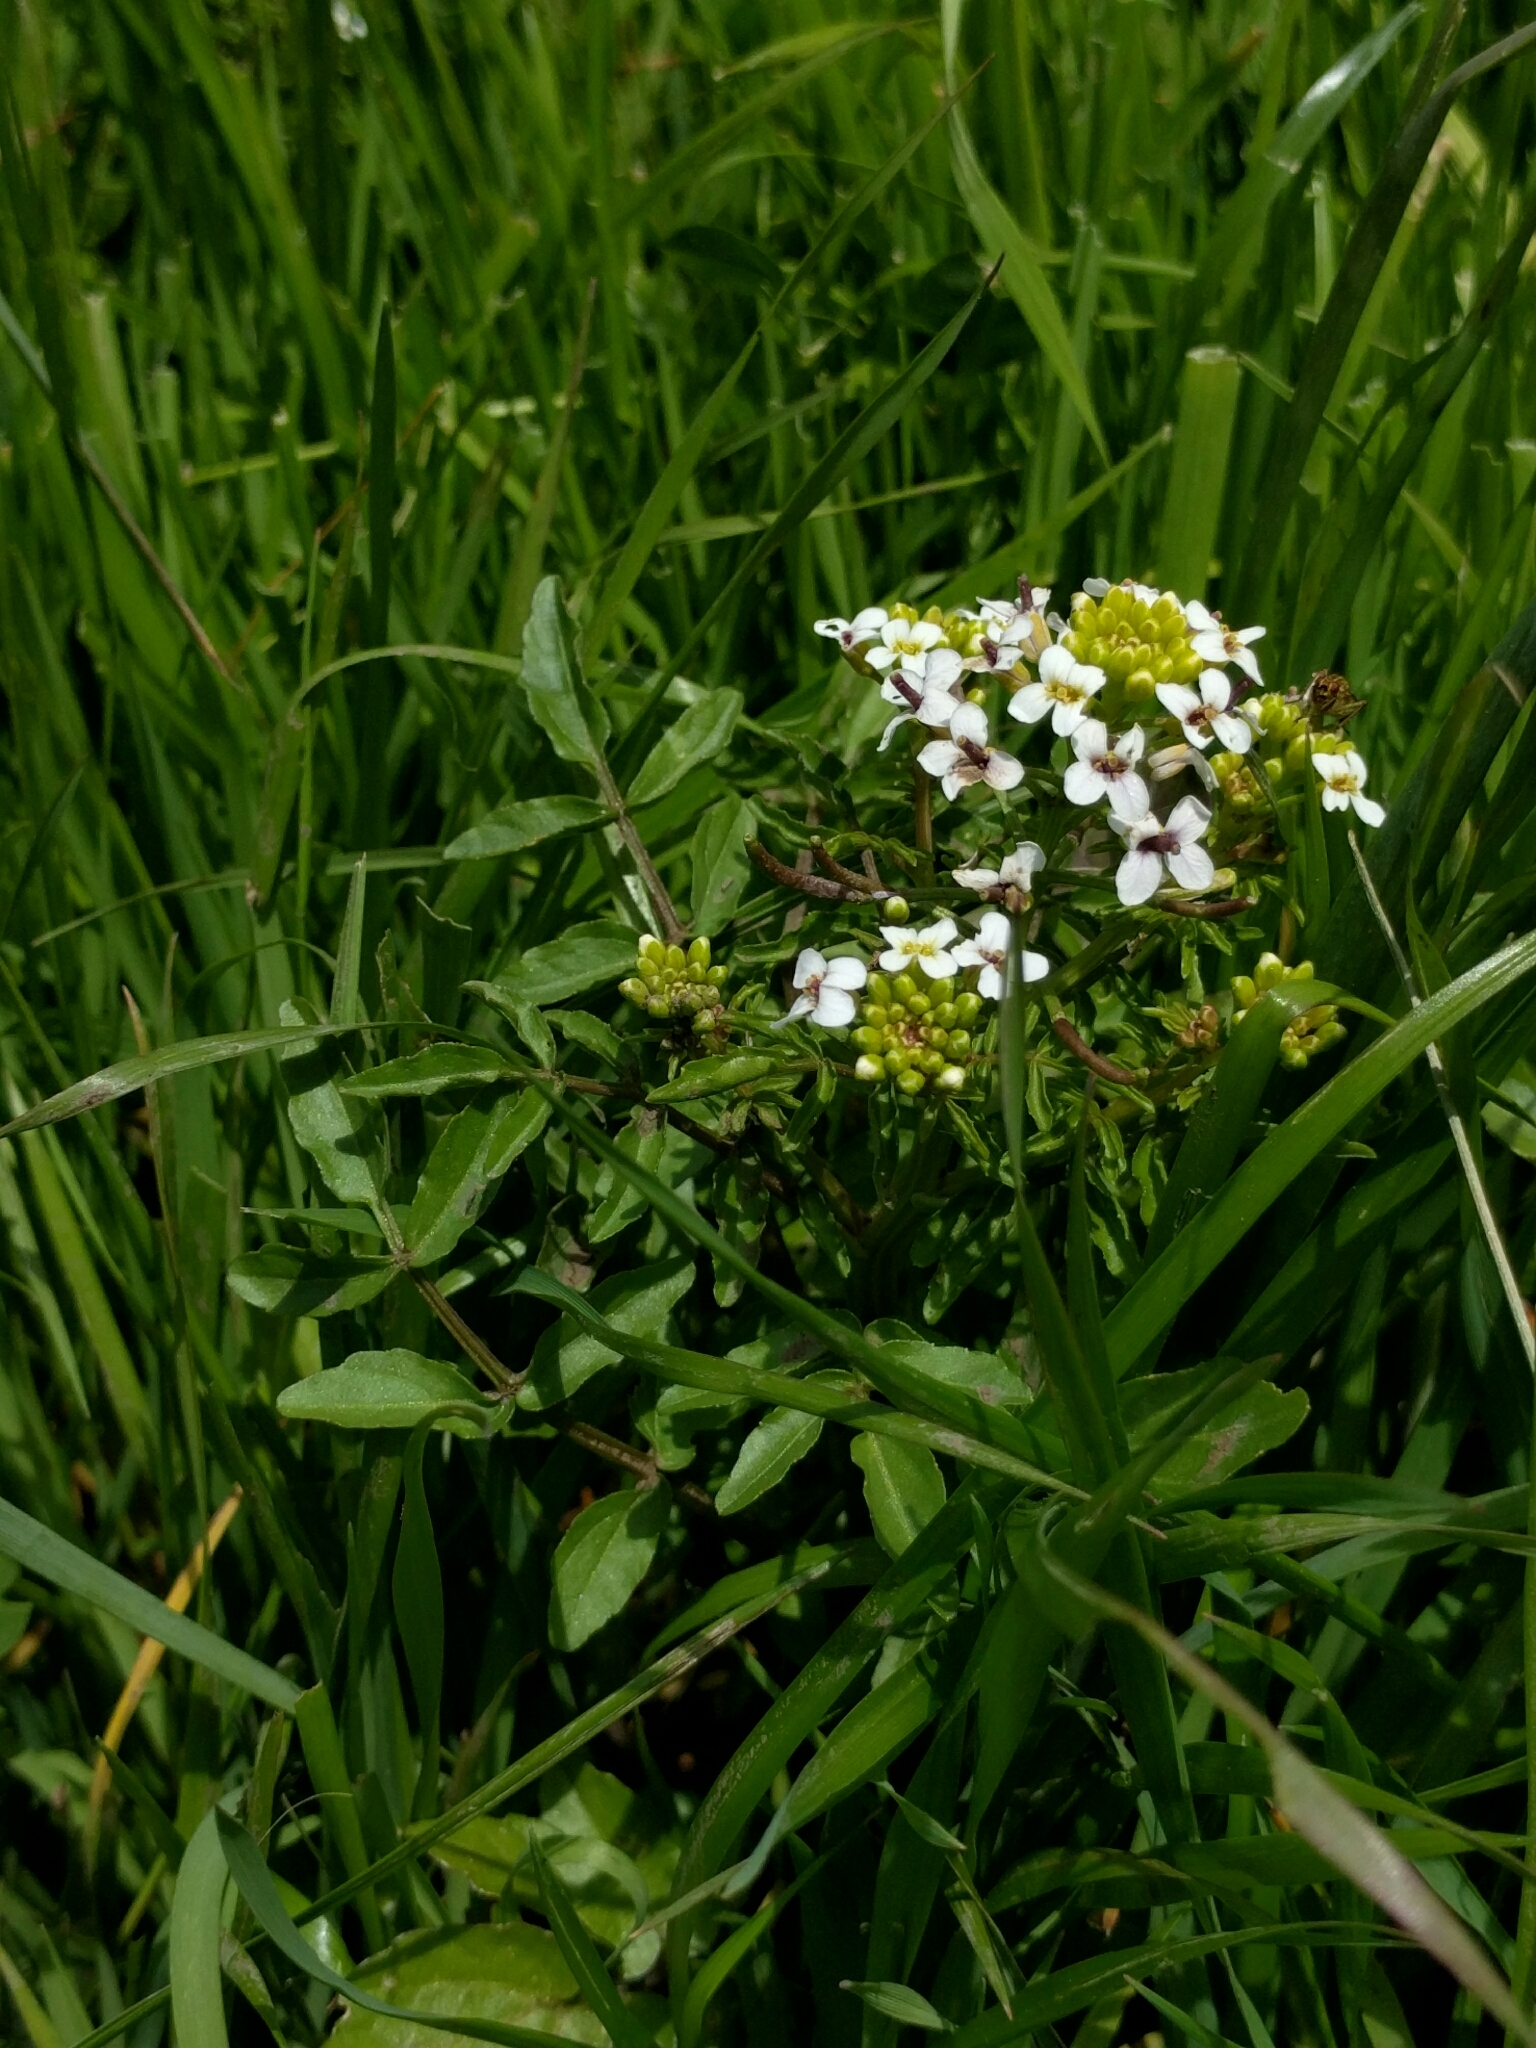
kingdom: Plantae
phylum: Tracheophyta
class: Magnoliopsida
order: Brassicales
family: Brassicaceae
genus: Nasturtium
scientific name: Nasturtium officinale
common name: Watercress
